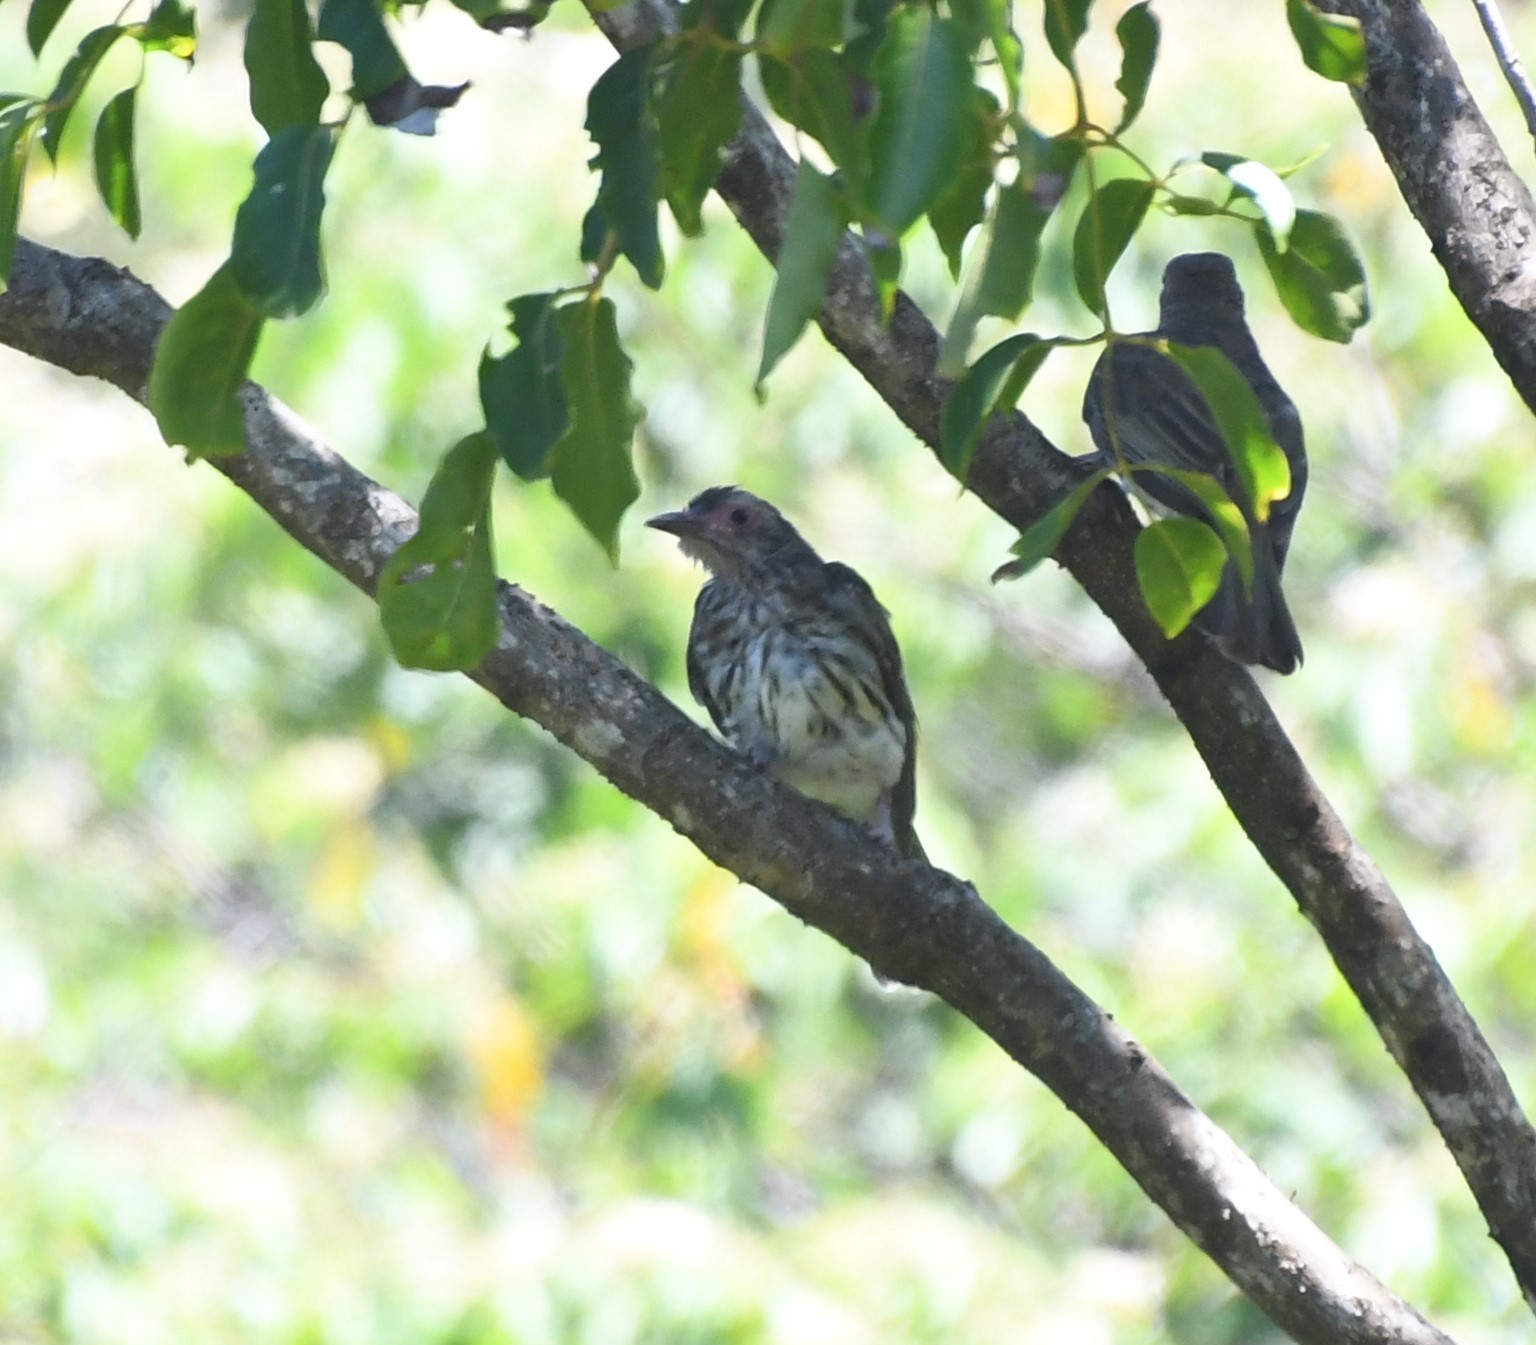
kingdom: Animalia
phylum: Chordata
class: Aves
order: Passeriformes
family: Oriolidae
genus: Sphecotheres
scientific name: Sphecotheres vieilloti
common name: Australasian figbird
